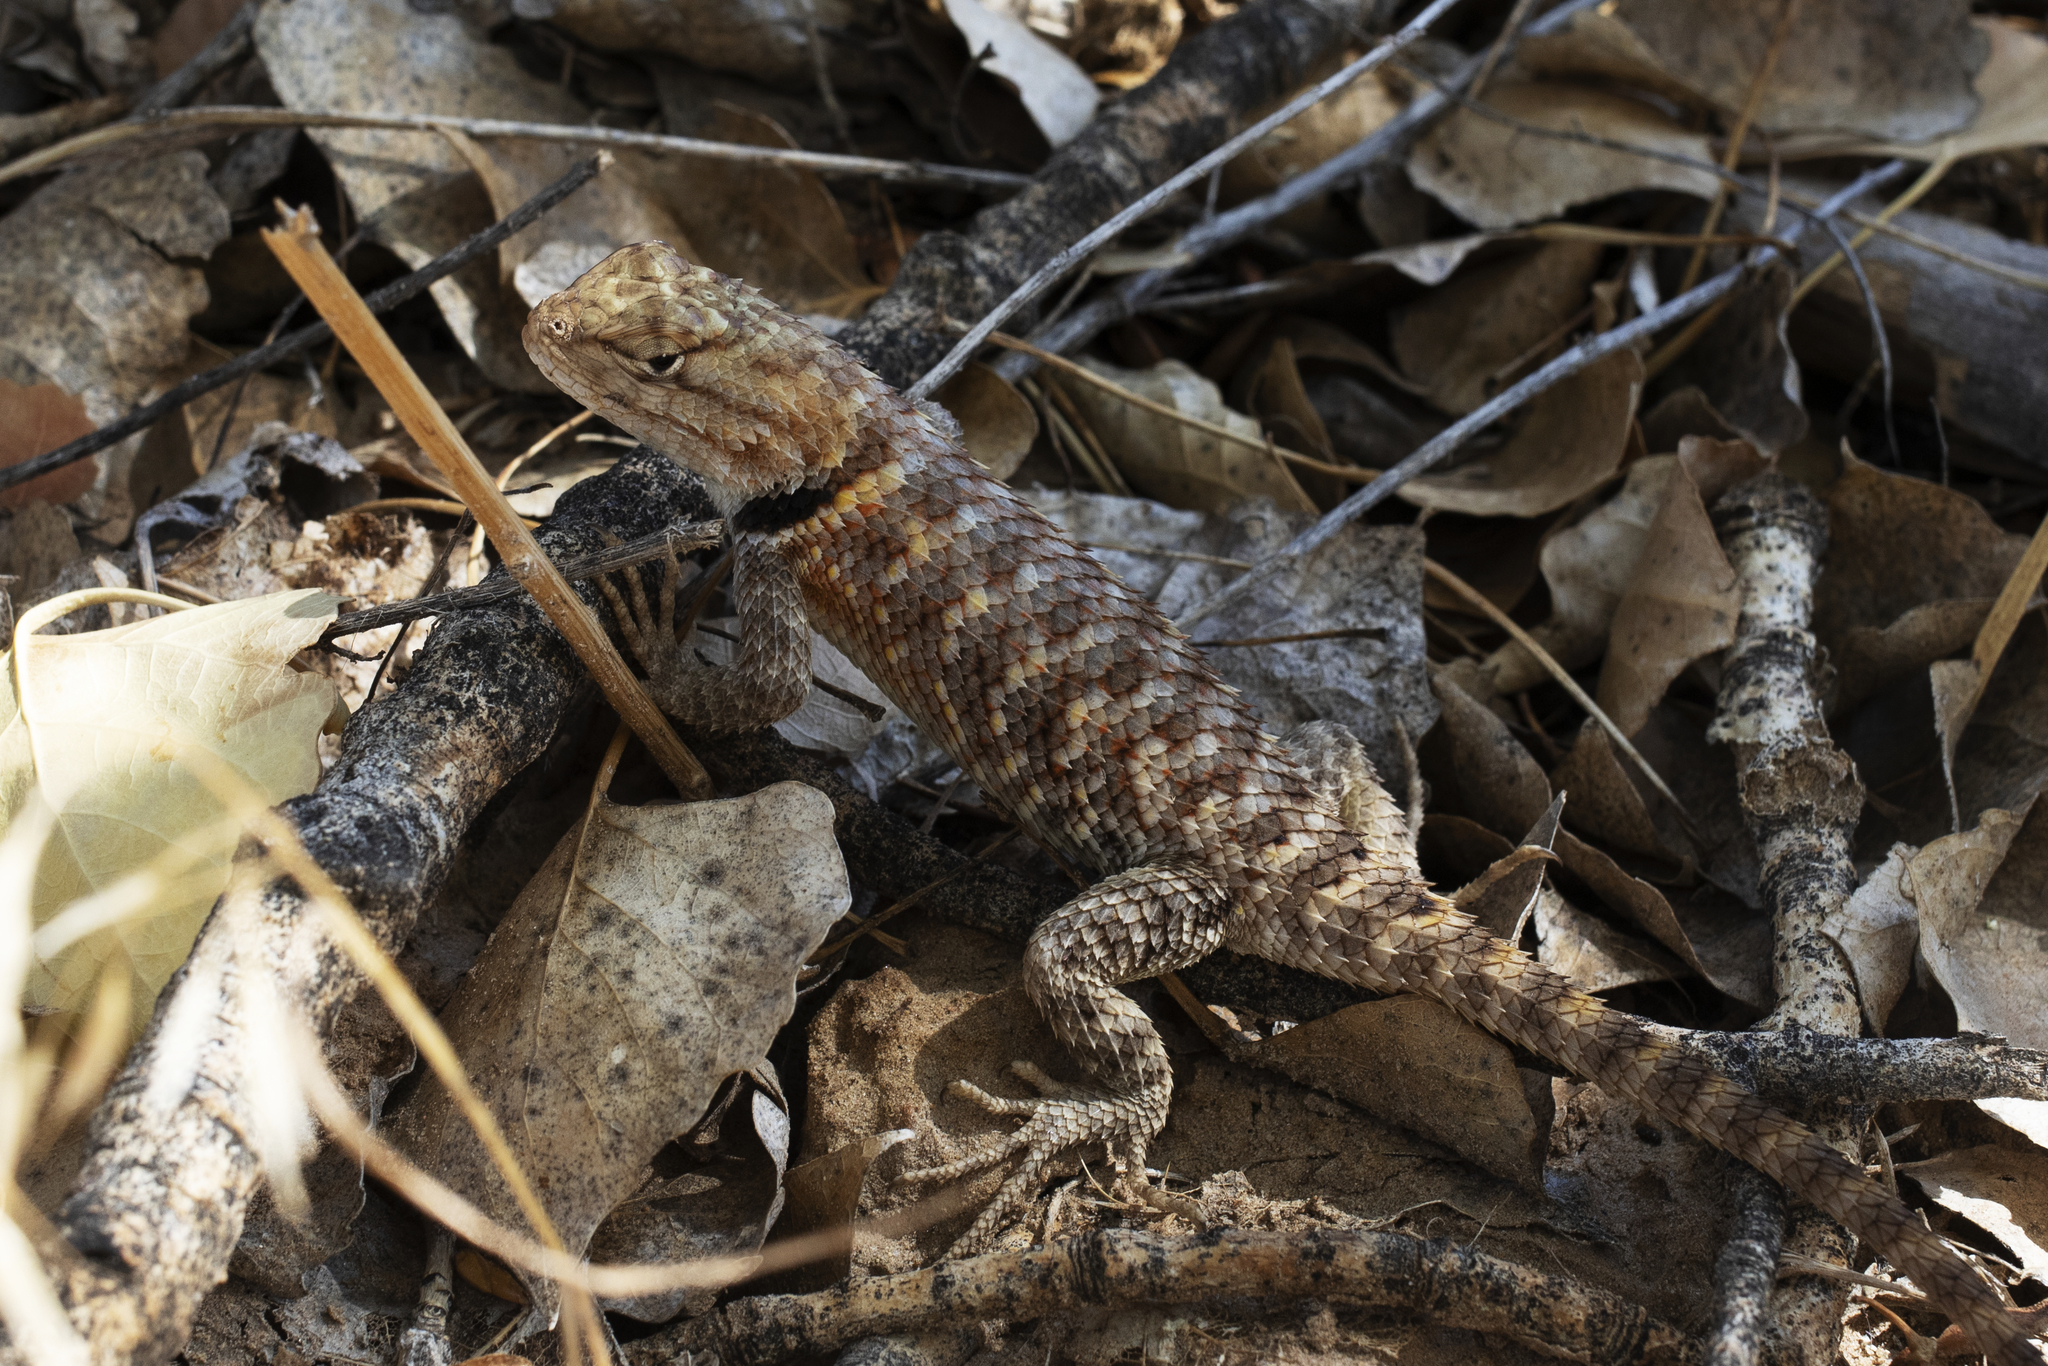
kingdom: Animalia
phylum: Chordata
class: Squamata
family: Phrynosomatidae
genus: Sceloporus
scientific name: Sceloporus magister
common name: Desert spiny lizard
